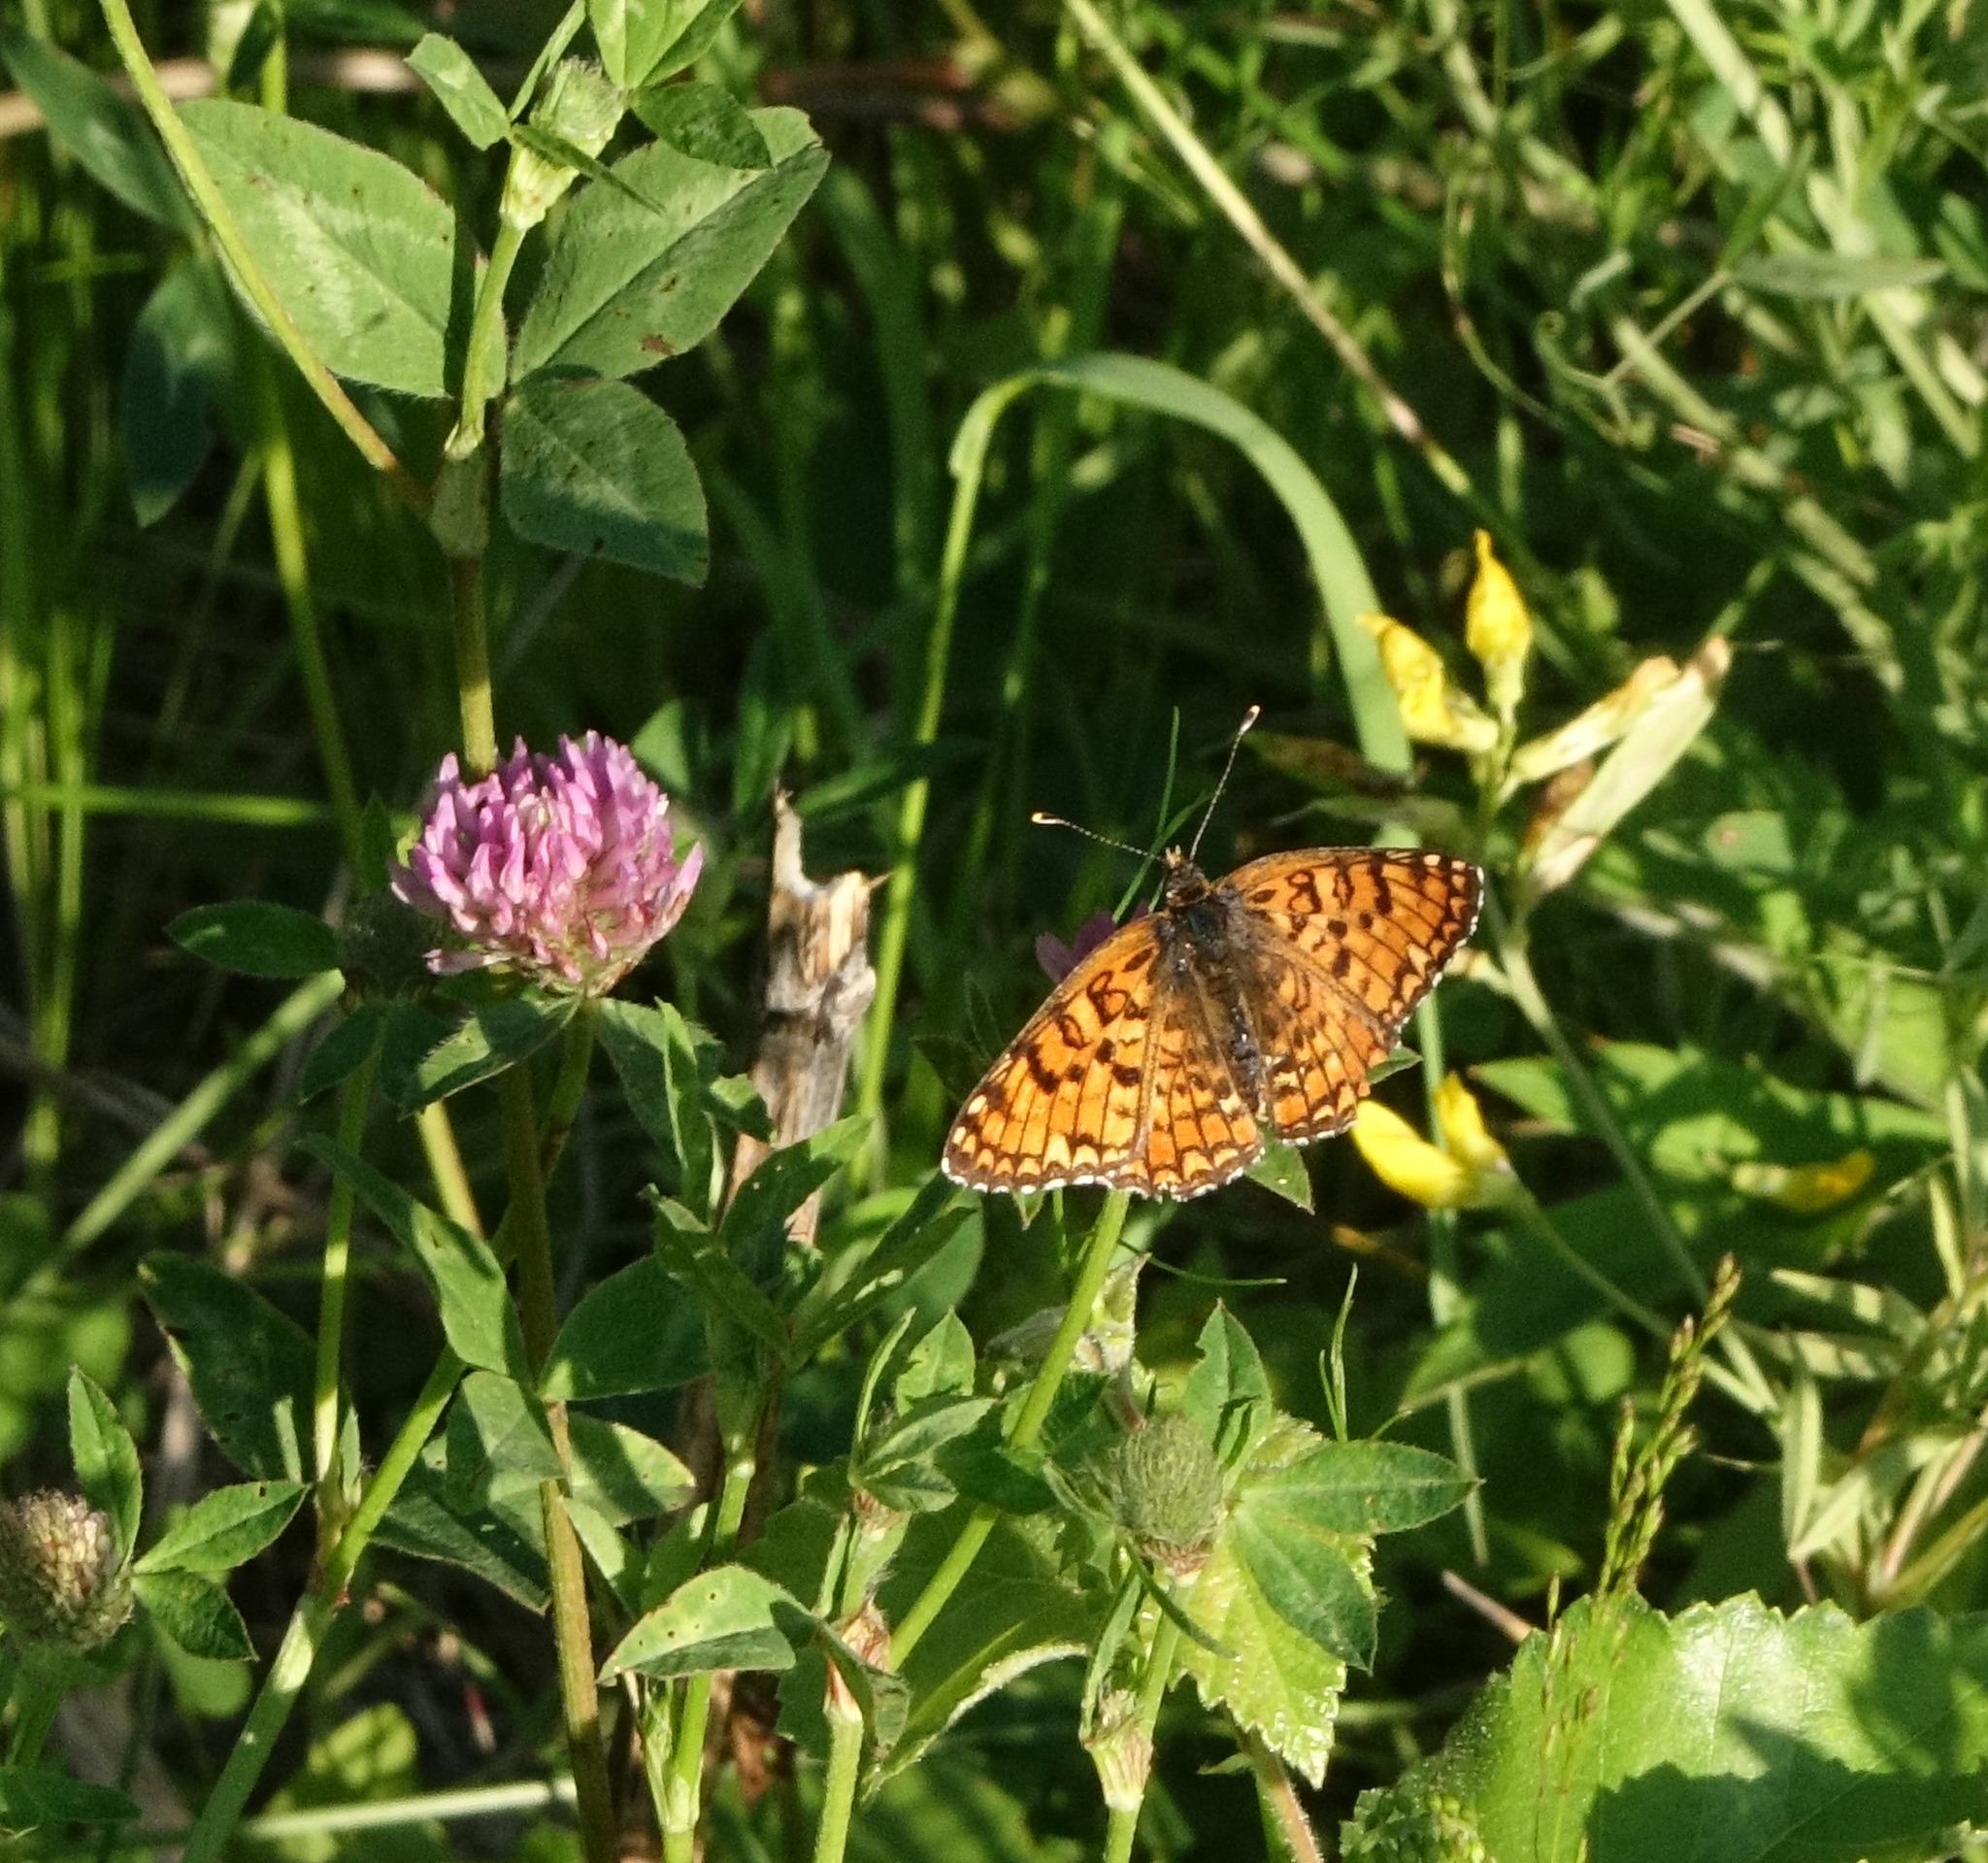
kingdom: Plantae
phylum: Tracheophyta
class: Magnoliopsida
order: Fabales
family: Fabaceae
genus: Trifolium
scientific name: Trifolium pratense
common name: Red clover
